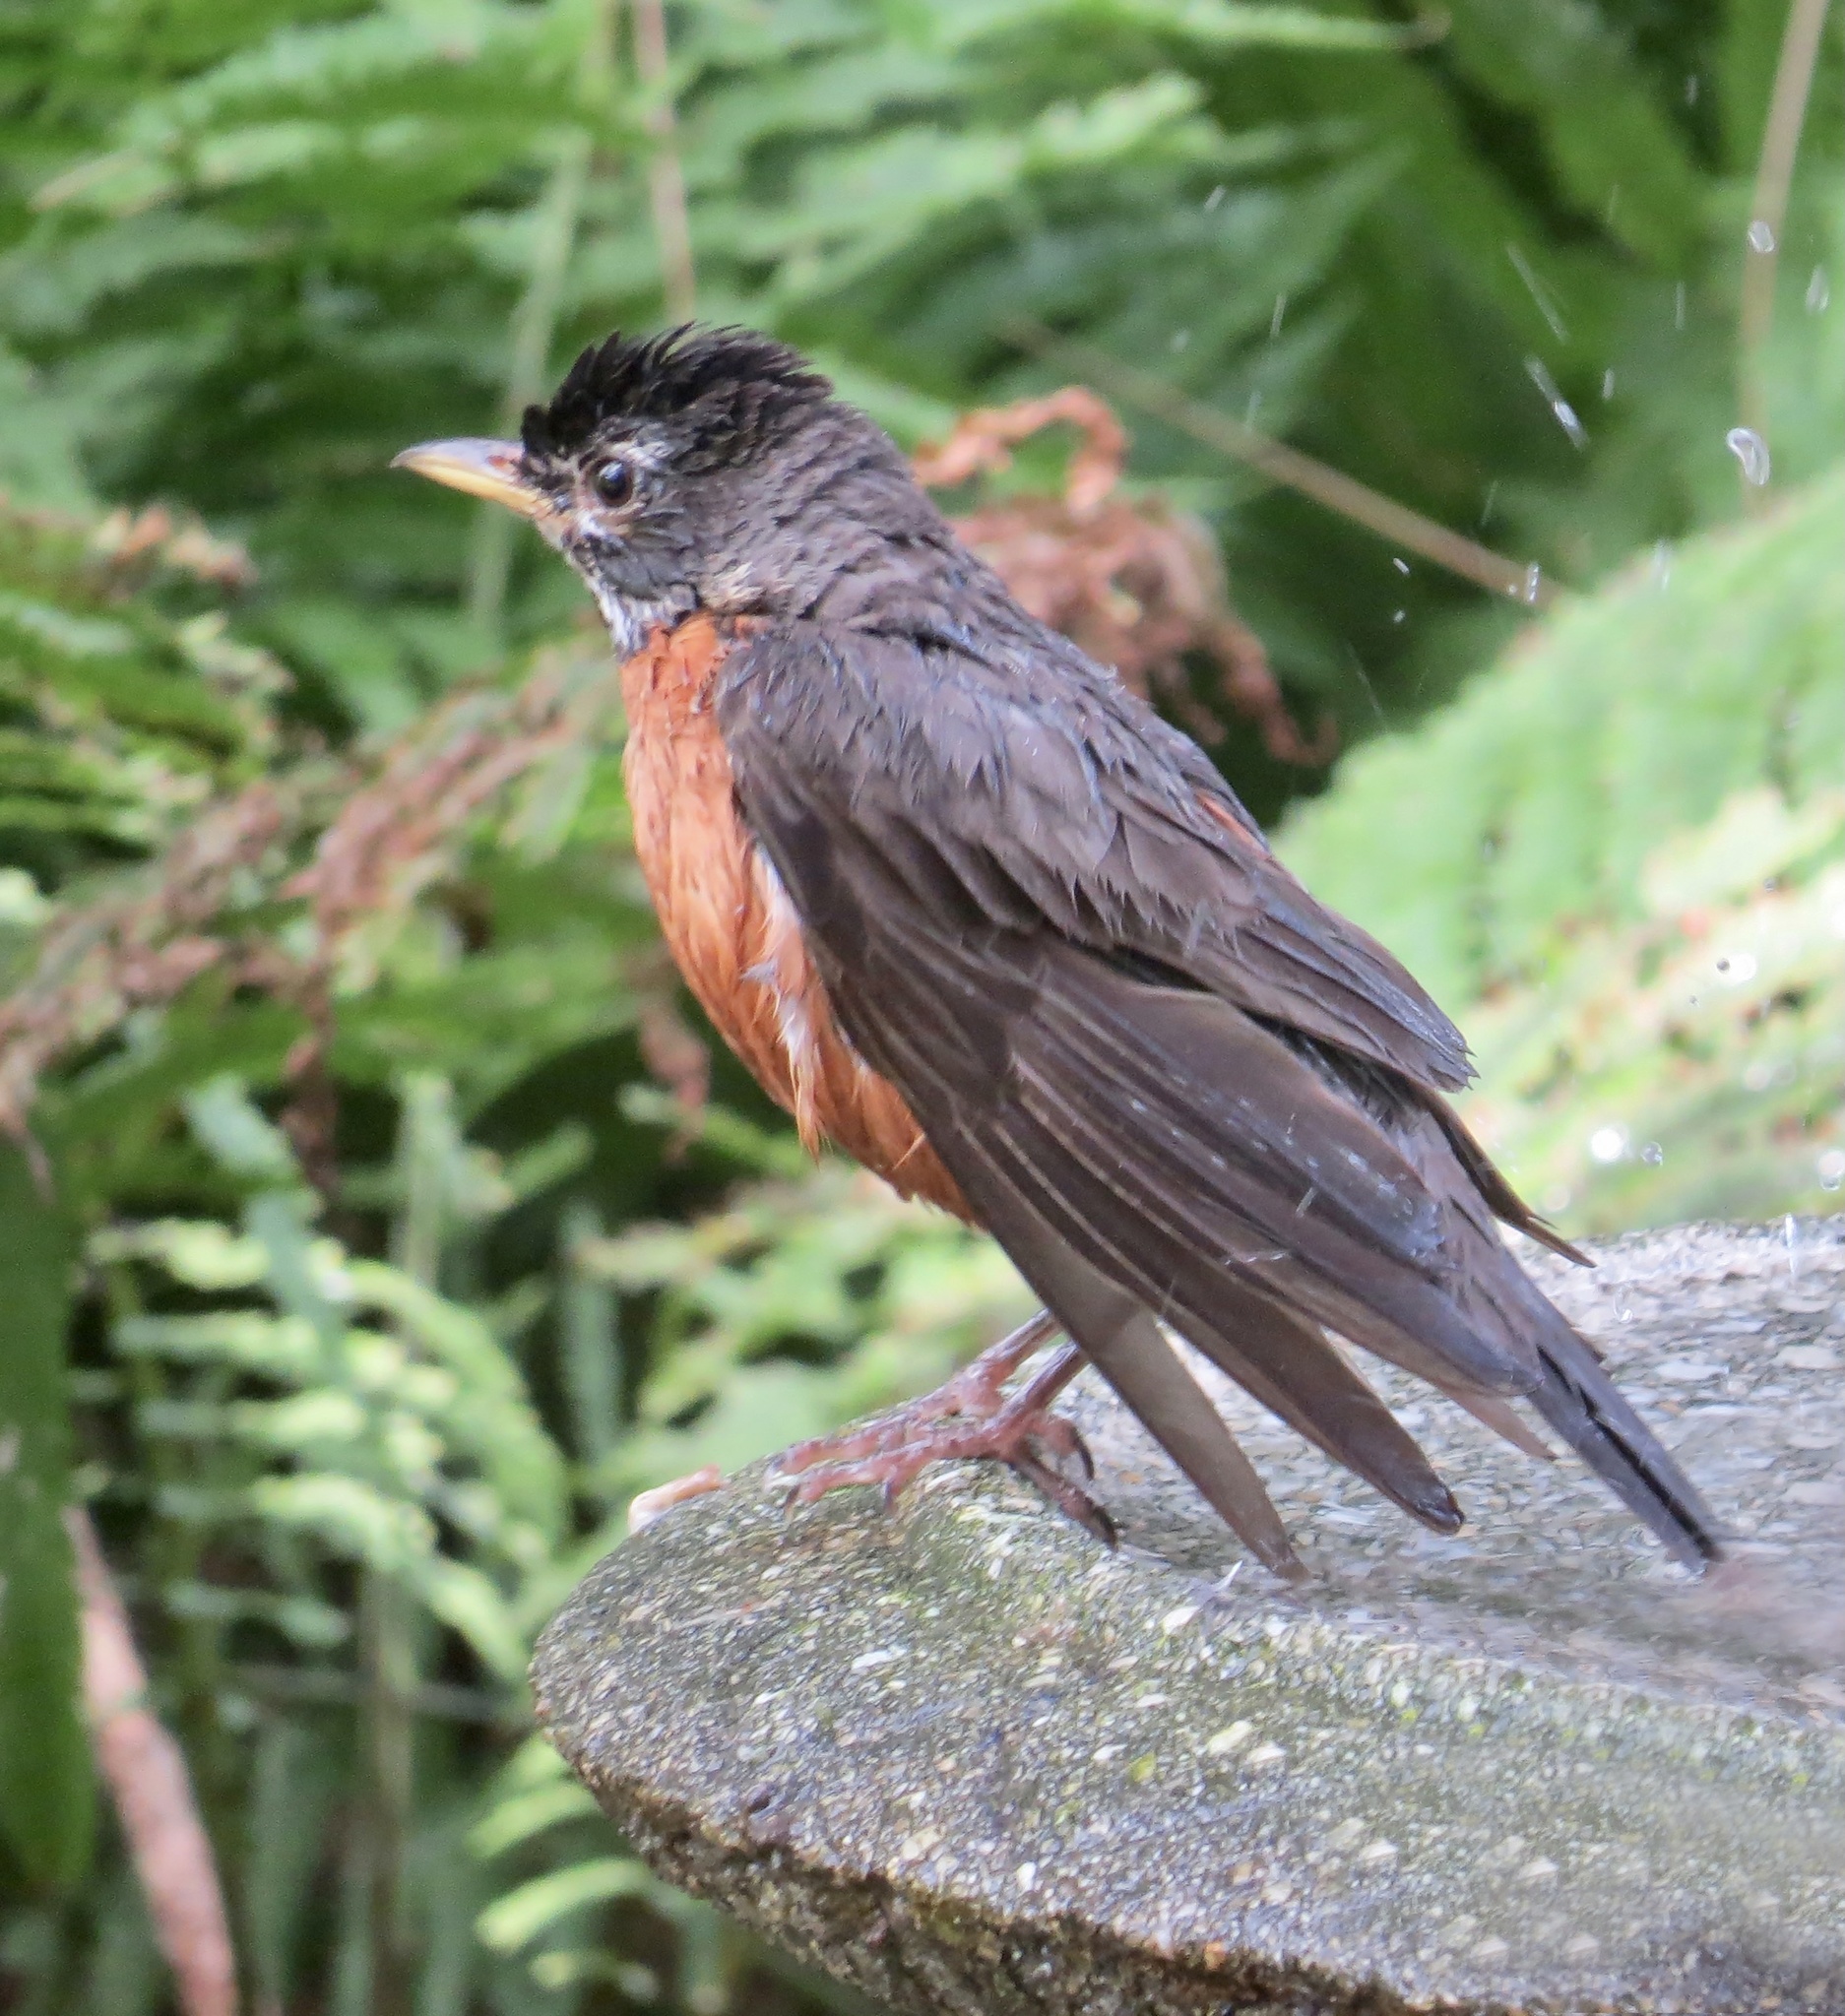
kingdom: Animalia
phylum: Chordata
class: Aves
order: Passeriformes
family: Turdidae
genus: Turdus
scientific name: Turdus migratorius
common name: American robin
